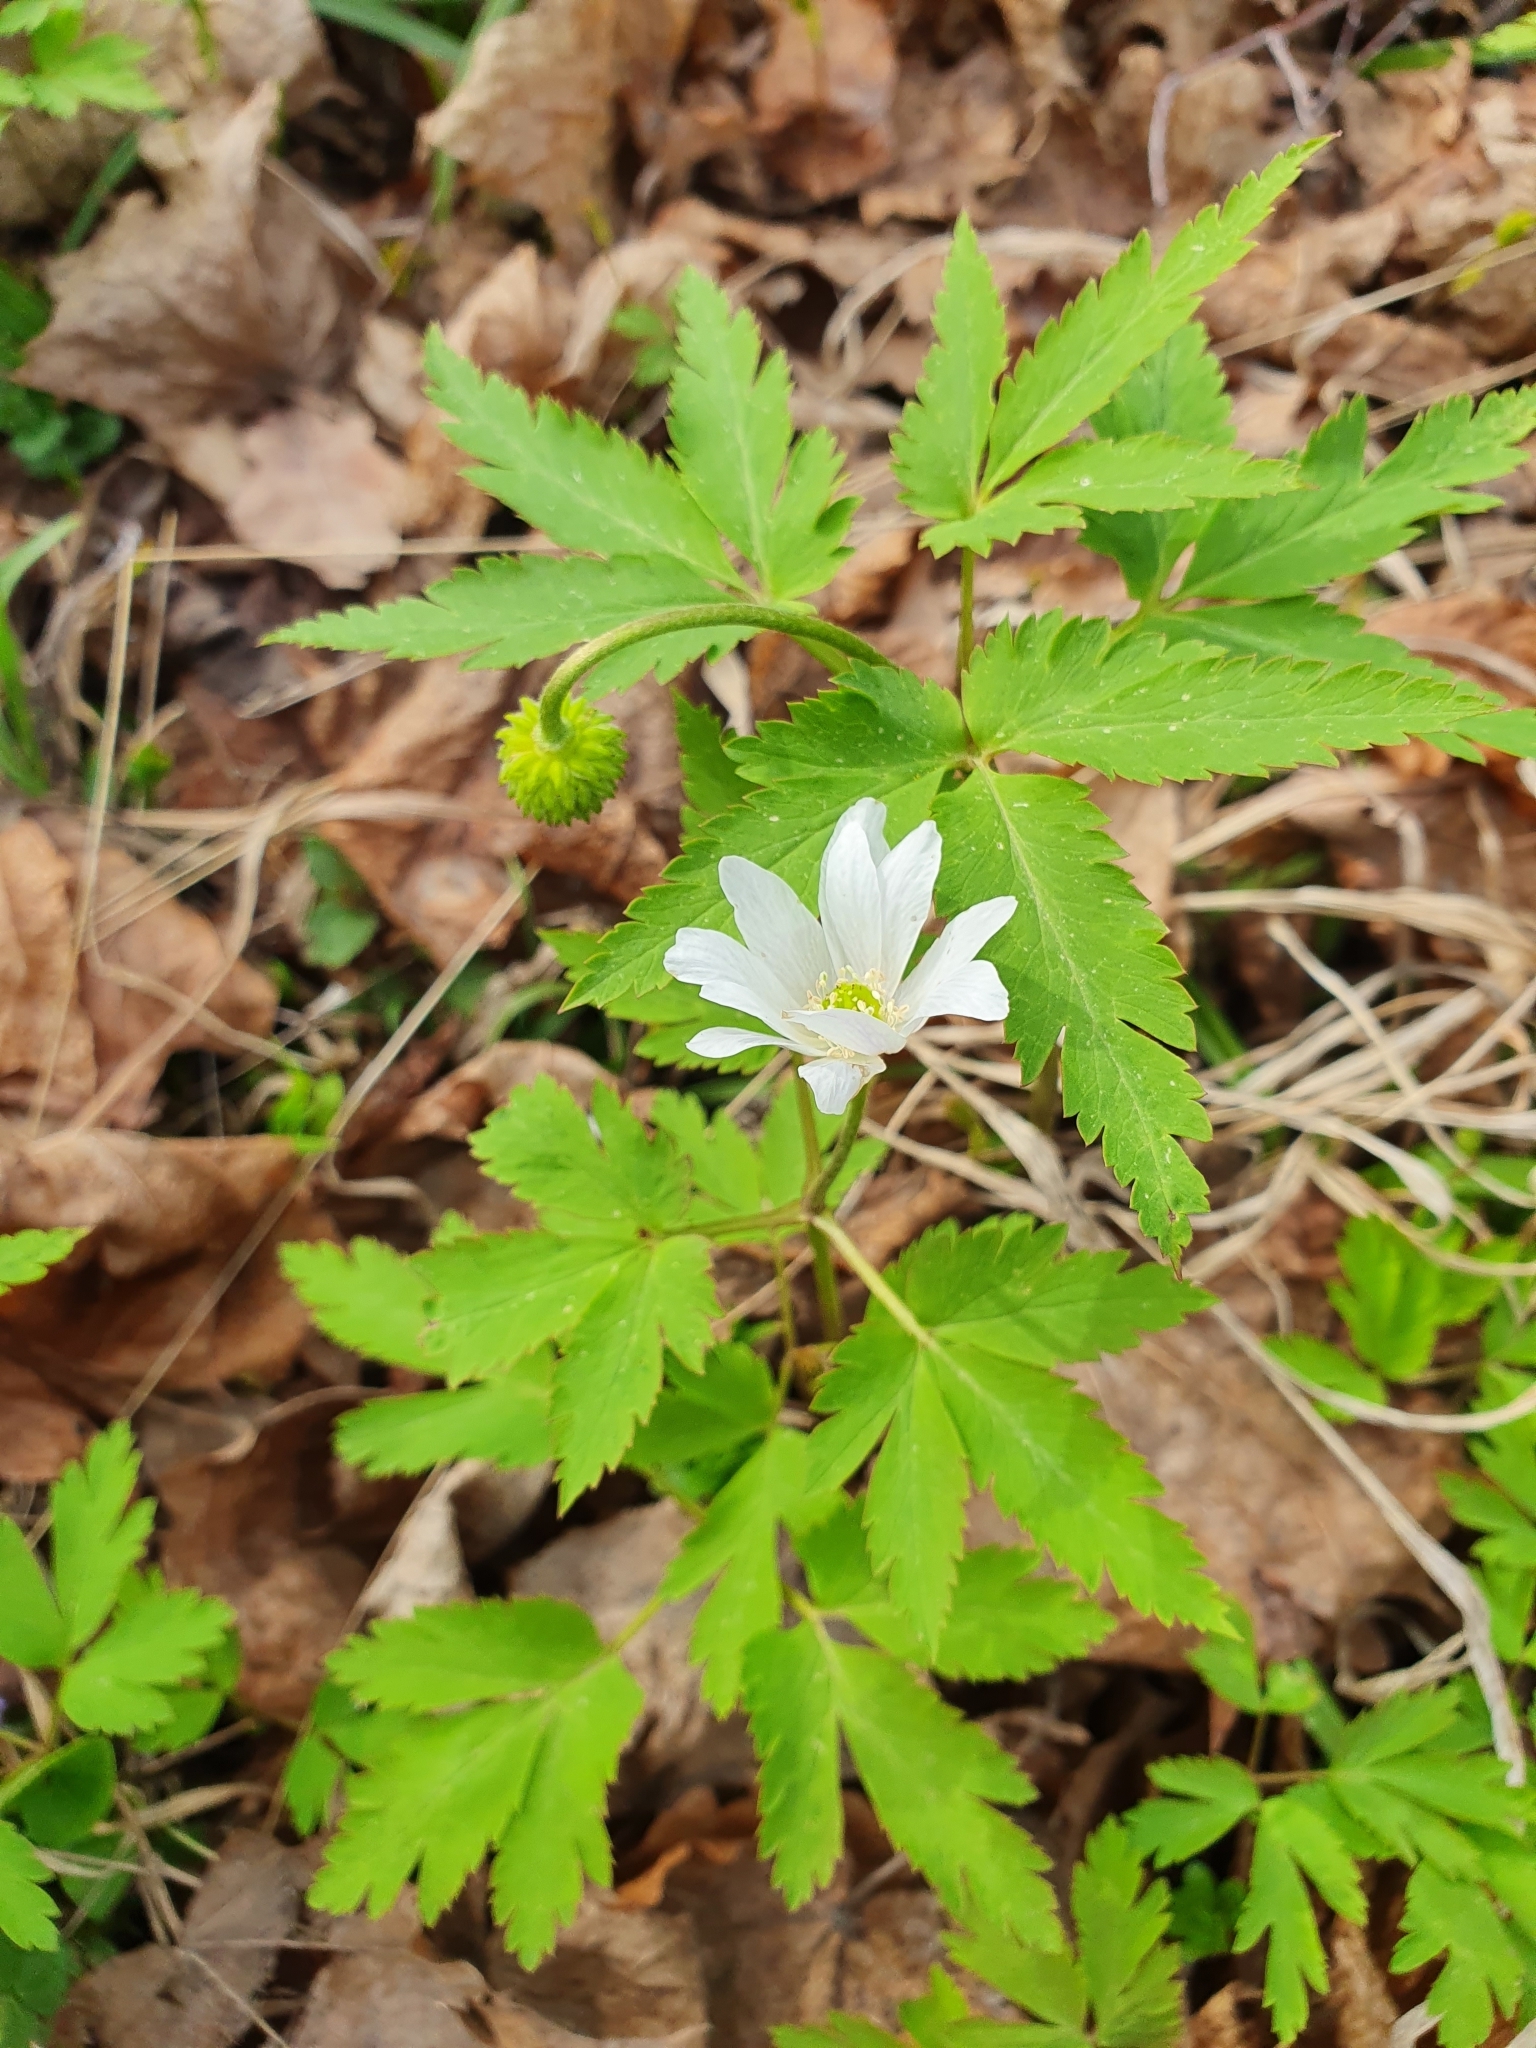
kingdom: Plantae
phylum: Tracheophyta
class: Magnoliopsida
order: Ranunculales
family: Ranunculaceae
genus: Anemone
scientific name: Anemone altaica
